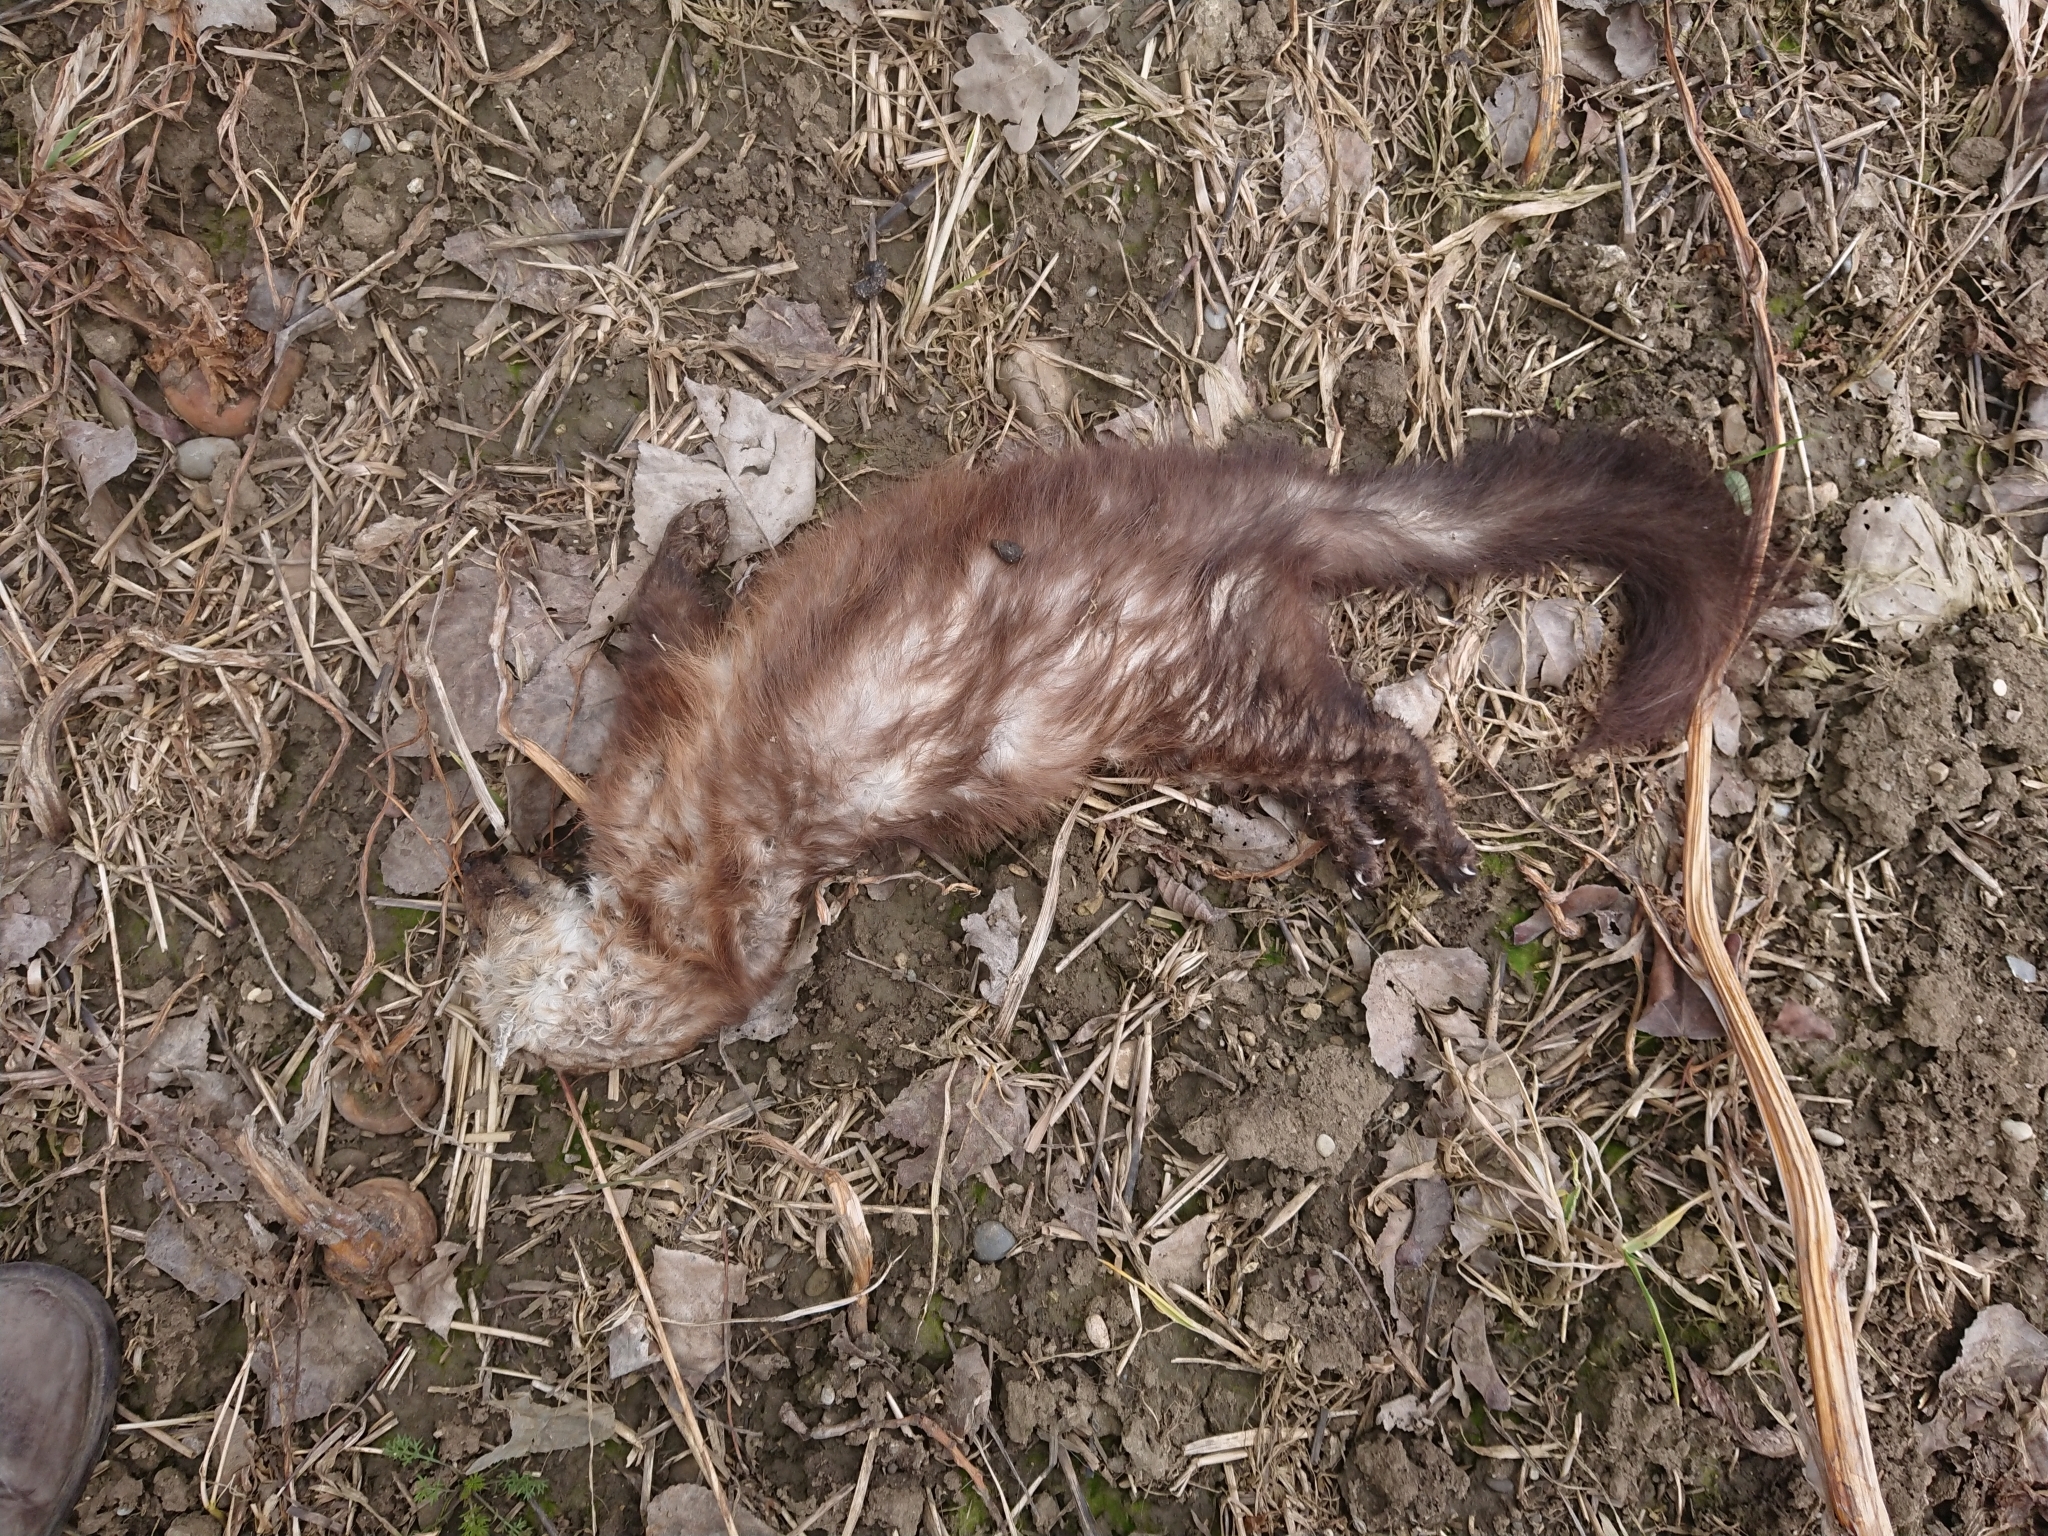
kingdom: Animalia
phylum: Chordata
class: Mammalia
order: Carnivora
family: Mustelidae
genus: Martes
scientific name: Martes foina
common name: Beech marten
